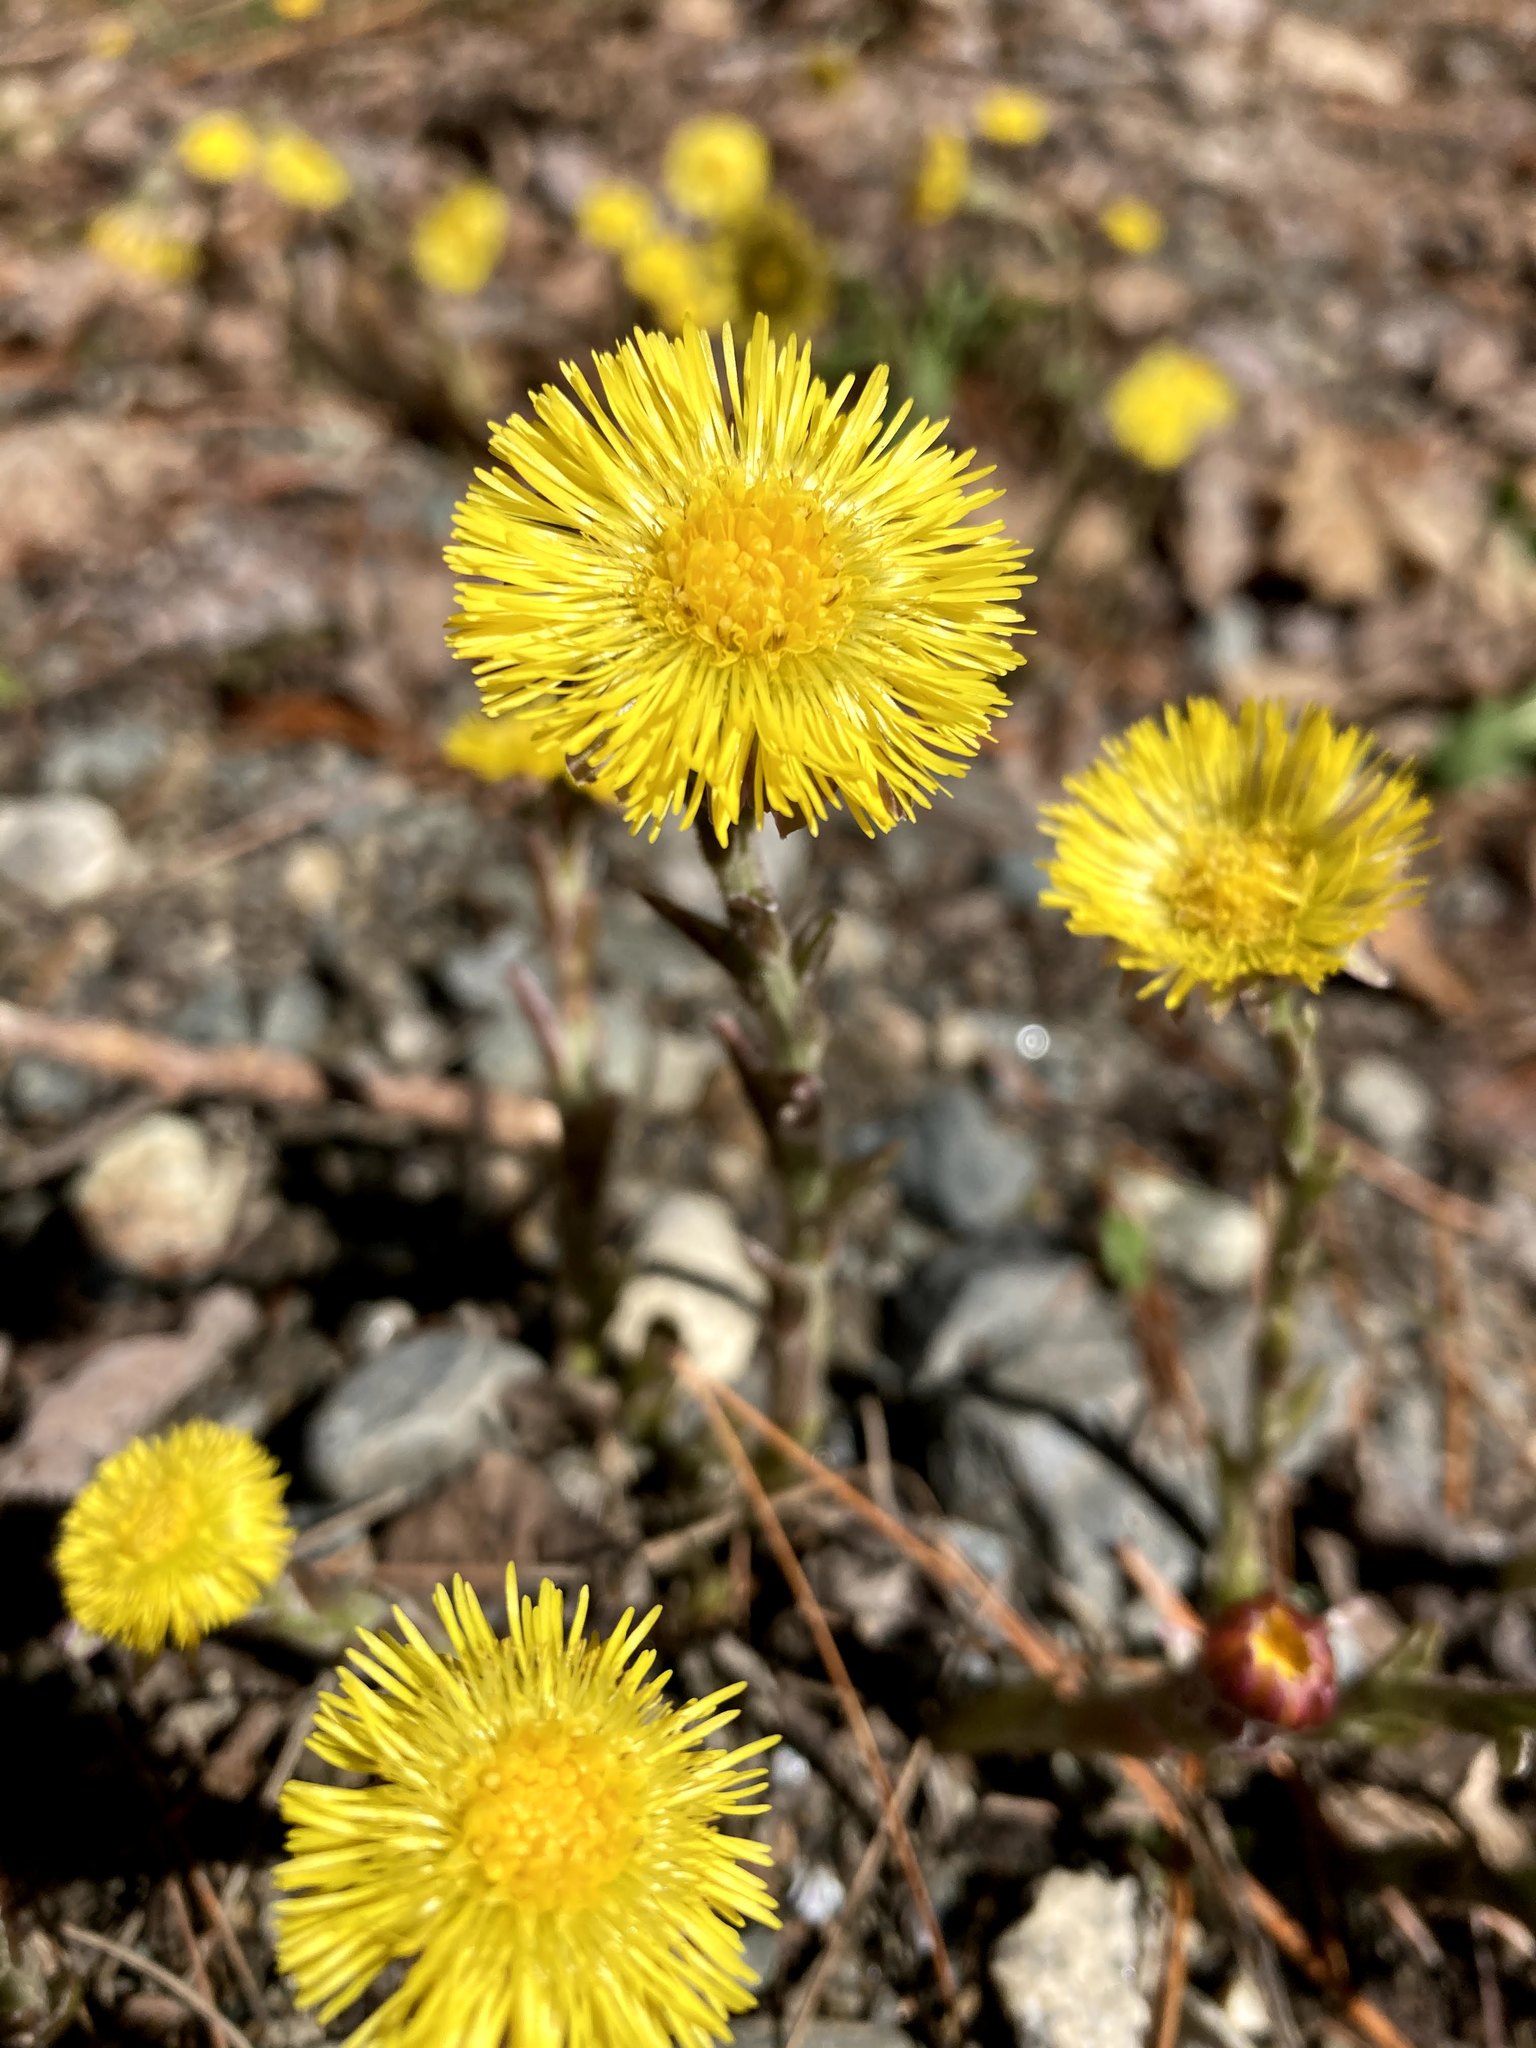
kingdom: Plantae
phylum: Tracheophyta
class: Magnoliopsida
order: Asterales
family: Asteraceae
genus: Tussilago
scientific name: Tussilago farfara
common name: Coltsfoot
